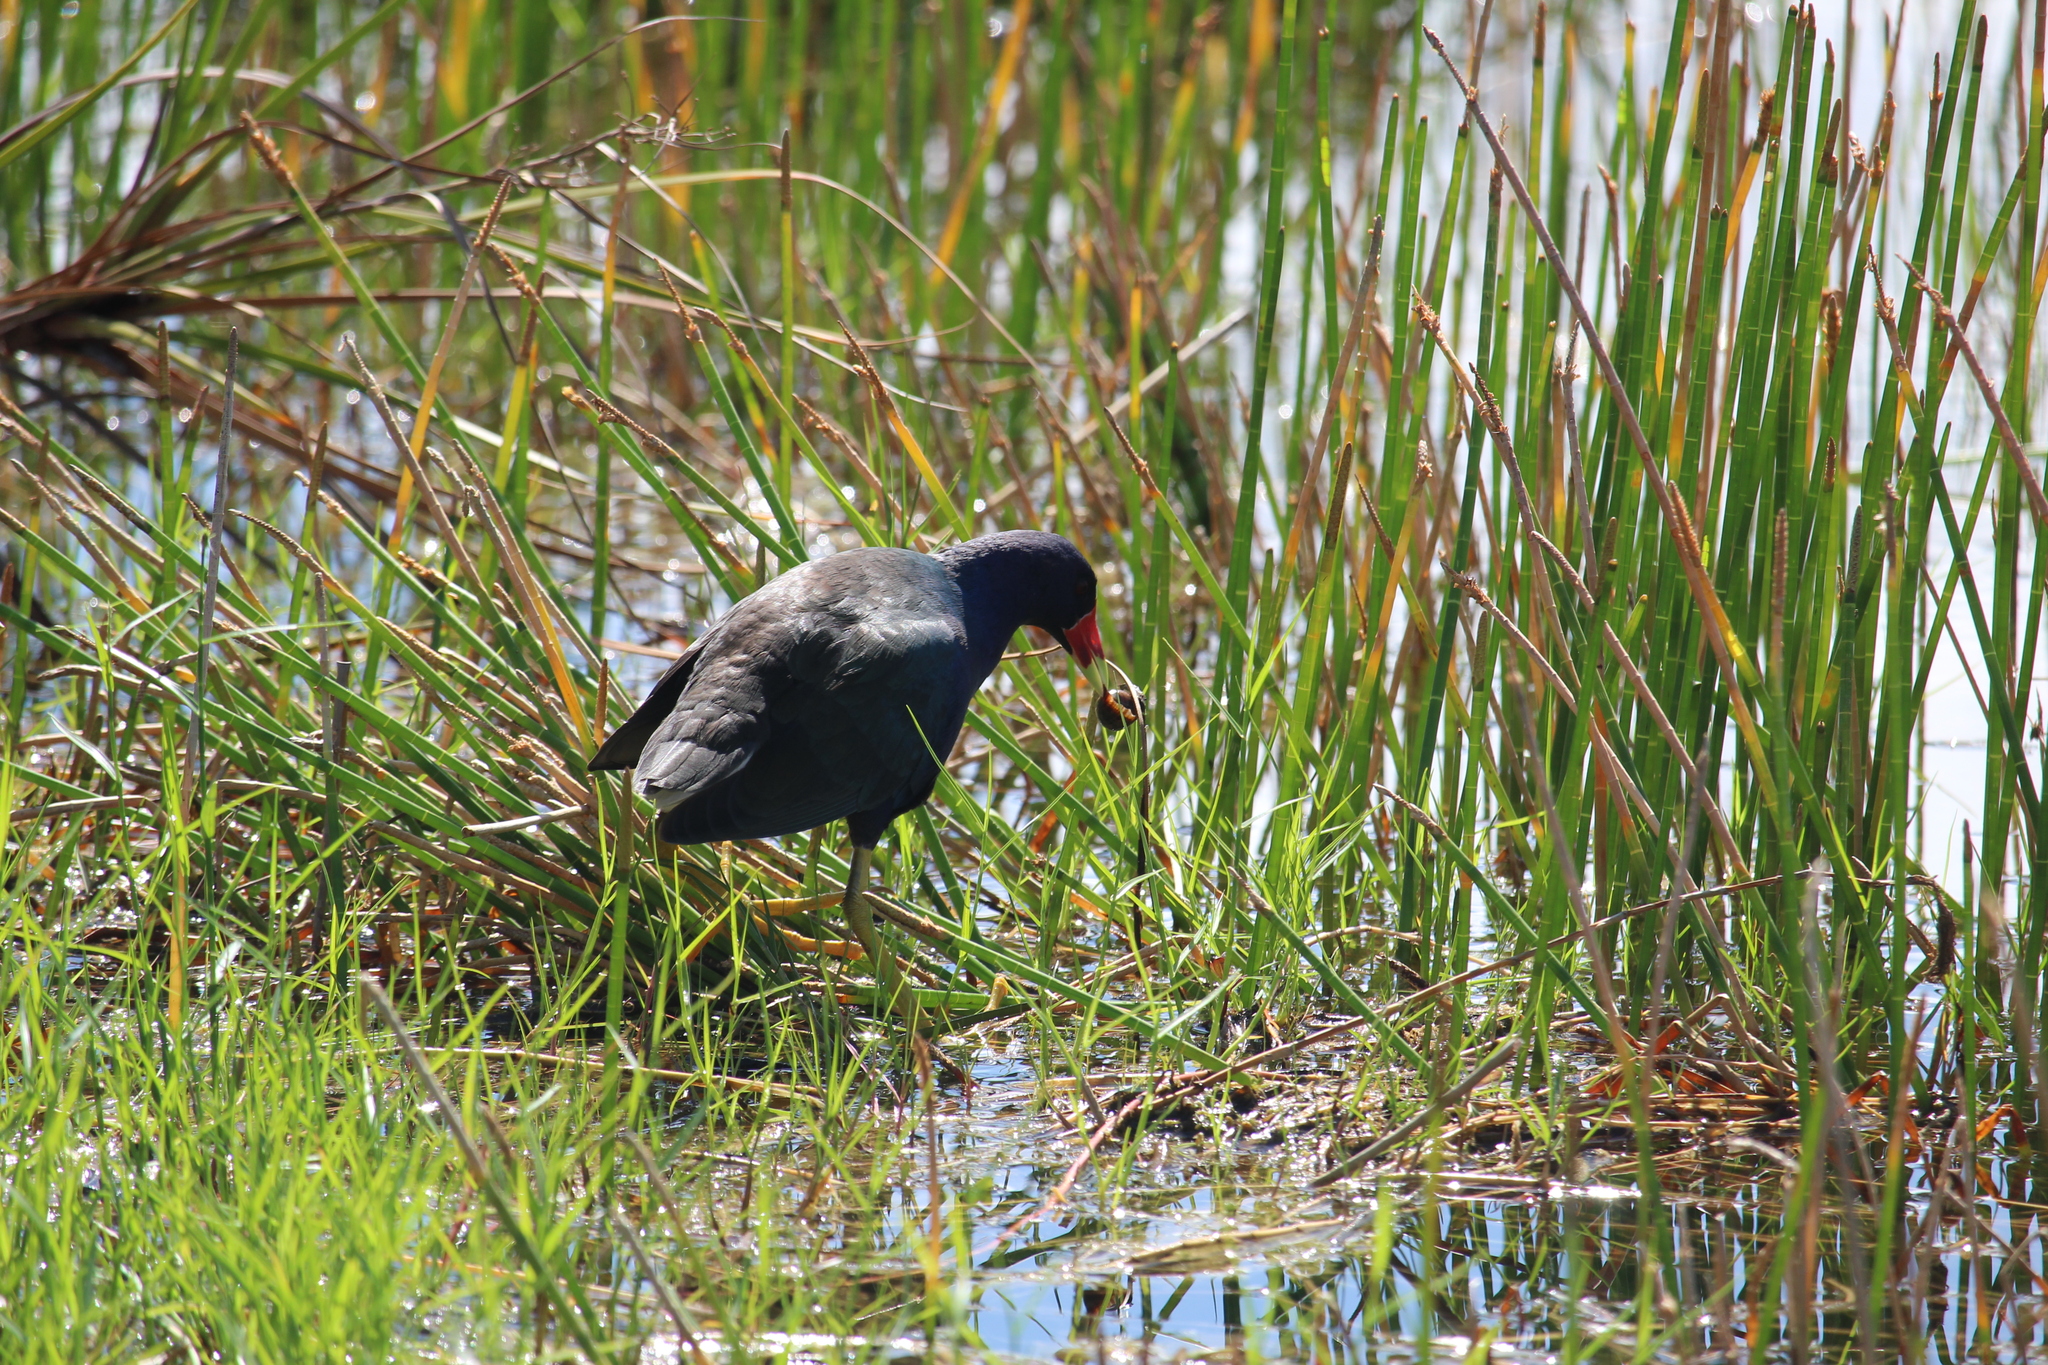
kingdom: Animalia
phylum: Chordata
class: Aves
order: Gruiformes
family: Rallidae
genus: Porphyrio
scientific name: Porphyrio martinica
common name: Purple gallinule
